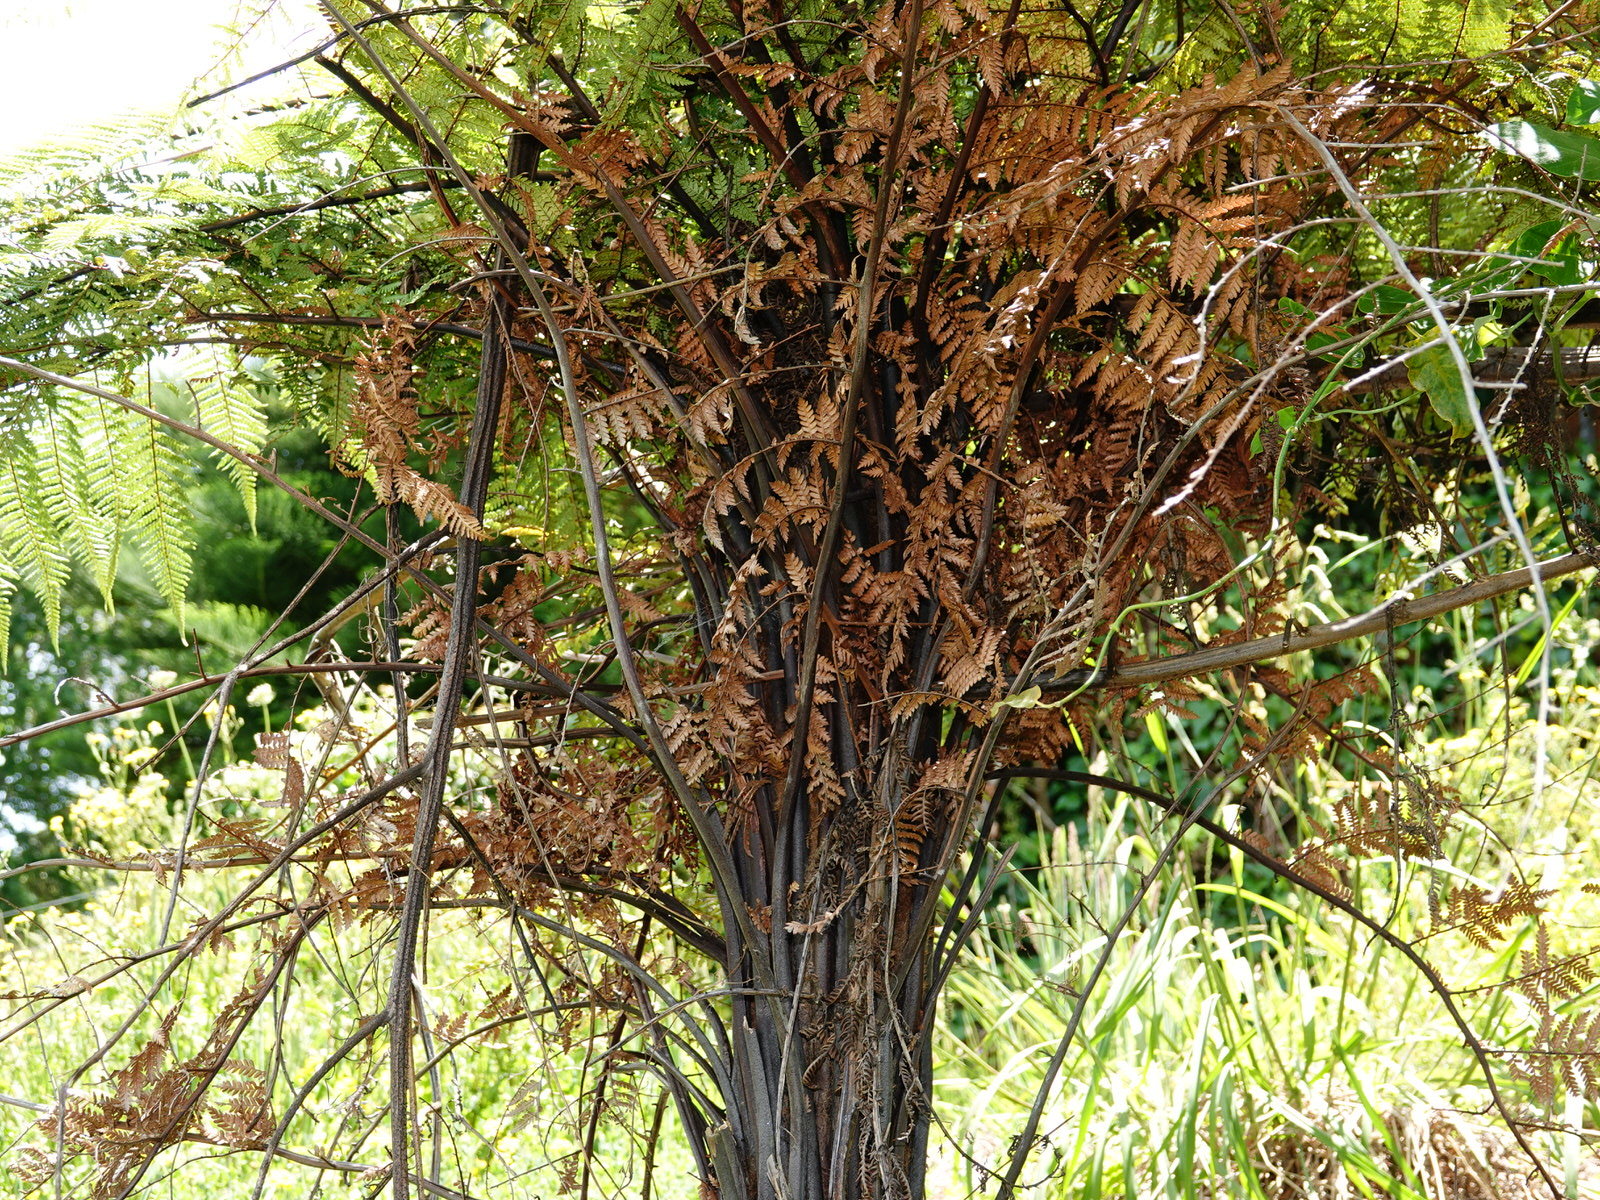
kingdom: Plantae
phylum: Tracheophyta
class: Polypodiopsida
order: Cyatheales
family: Dicksoniaceae
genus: Dicksonia
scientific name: Dicksonia squarrosa
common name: Hard treefern
